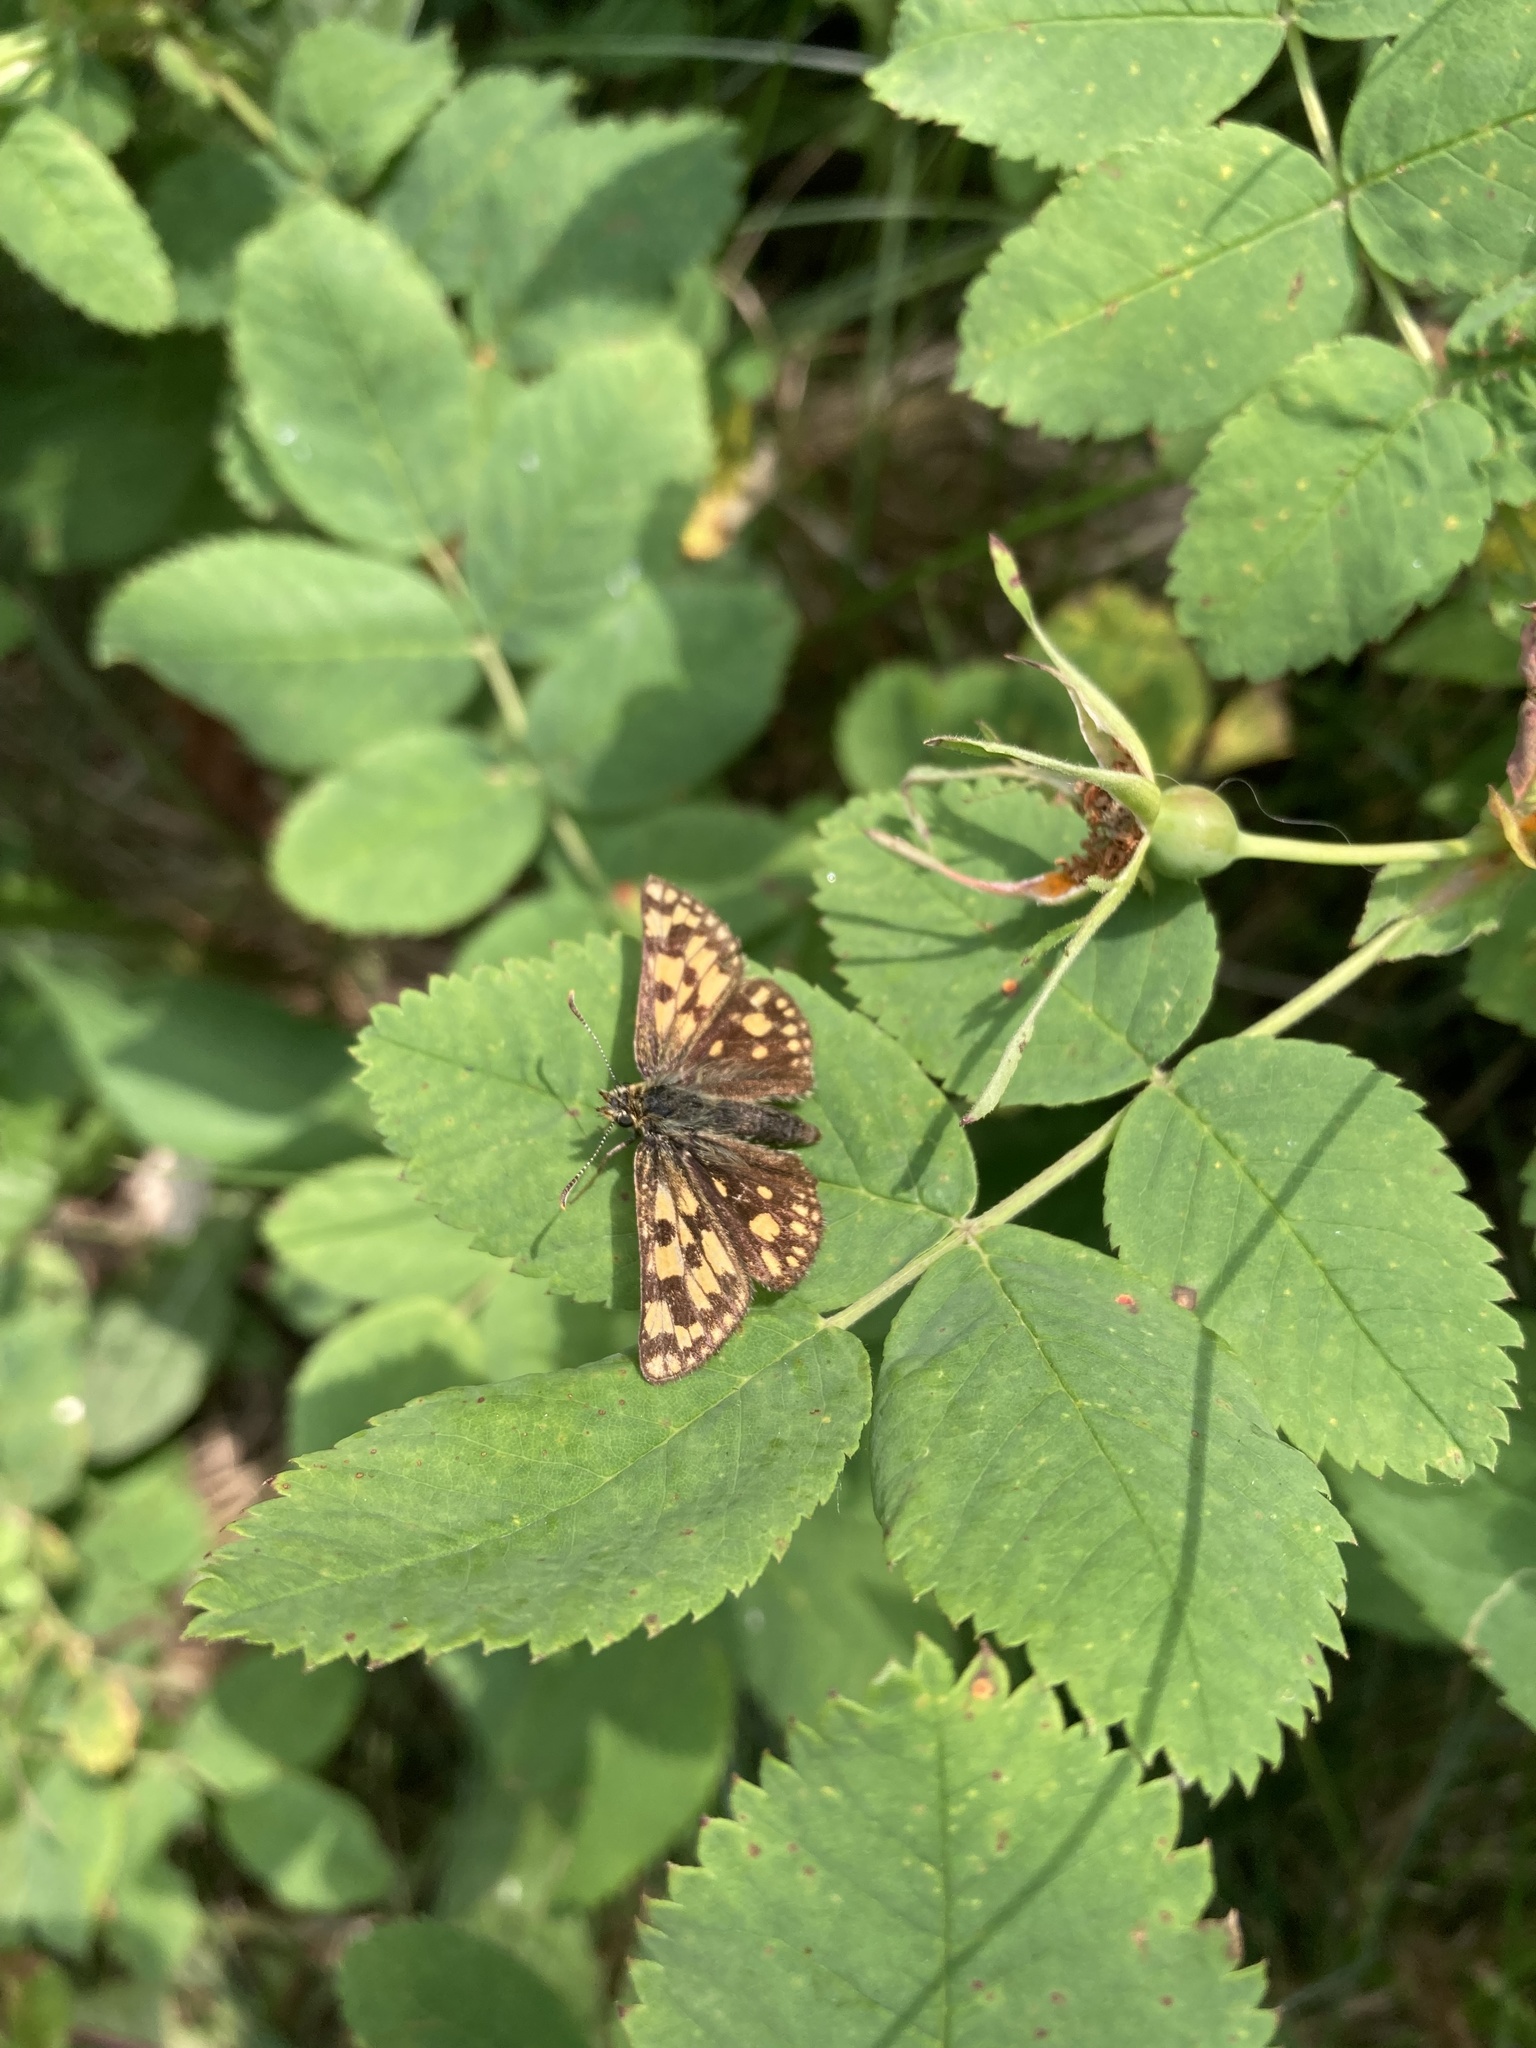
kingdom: Animalia
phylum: Arthropoda
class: Insecta
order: Lepidoptera
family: Hesperiidae
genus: Carterocephalus
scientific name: Carterocephalus skada
